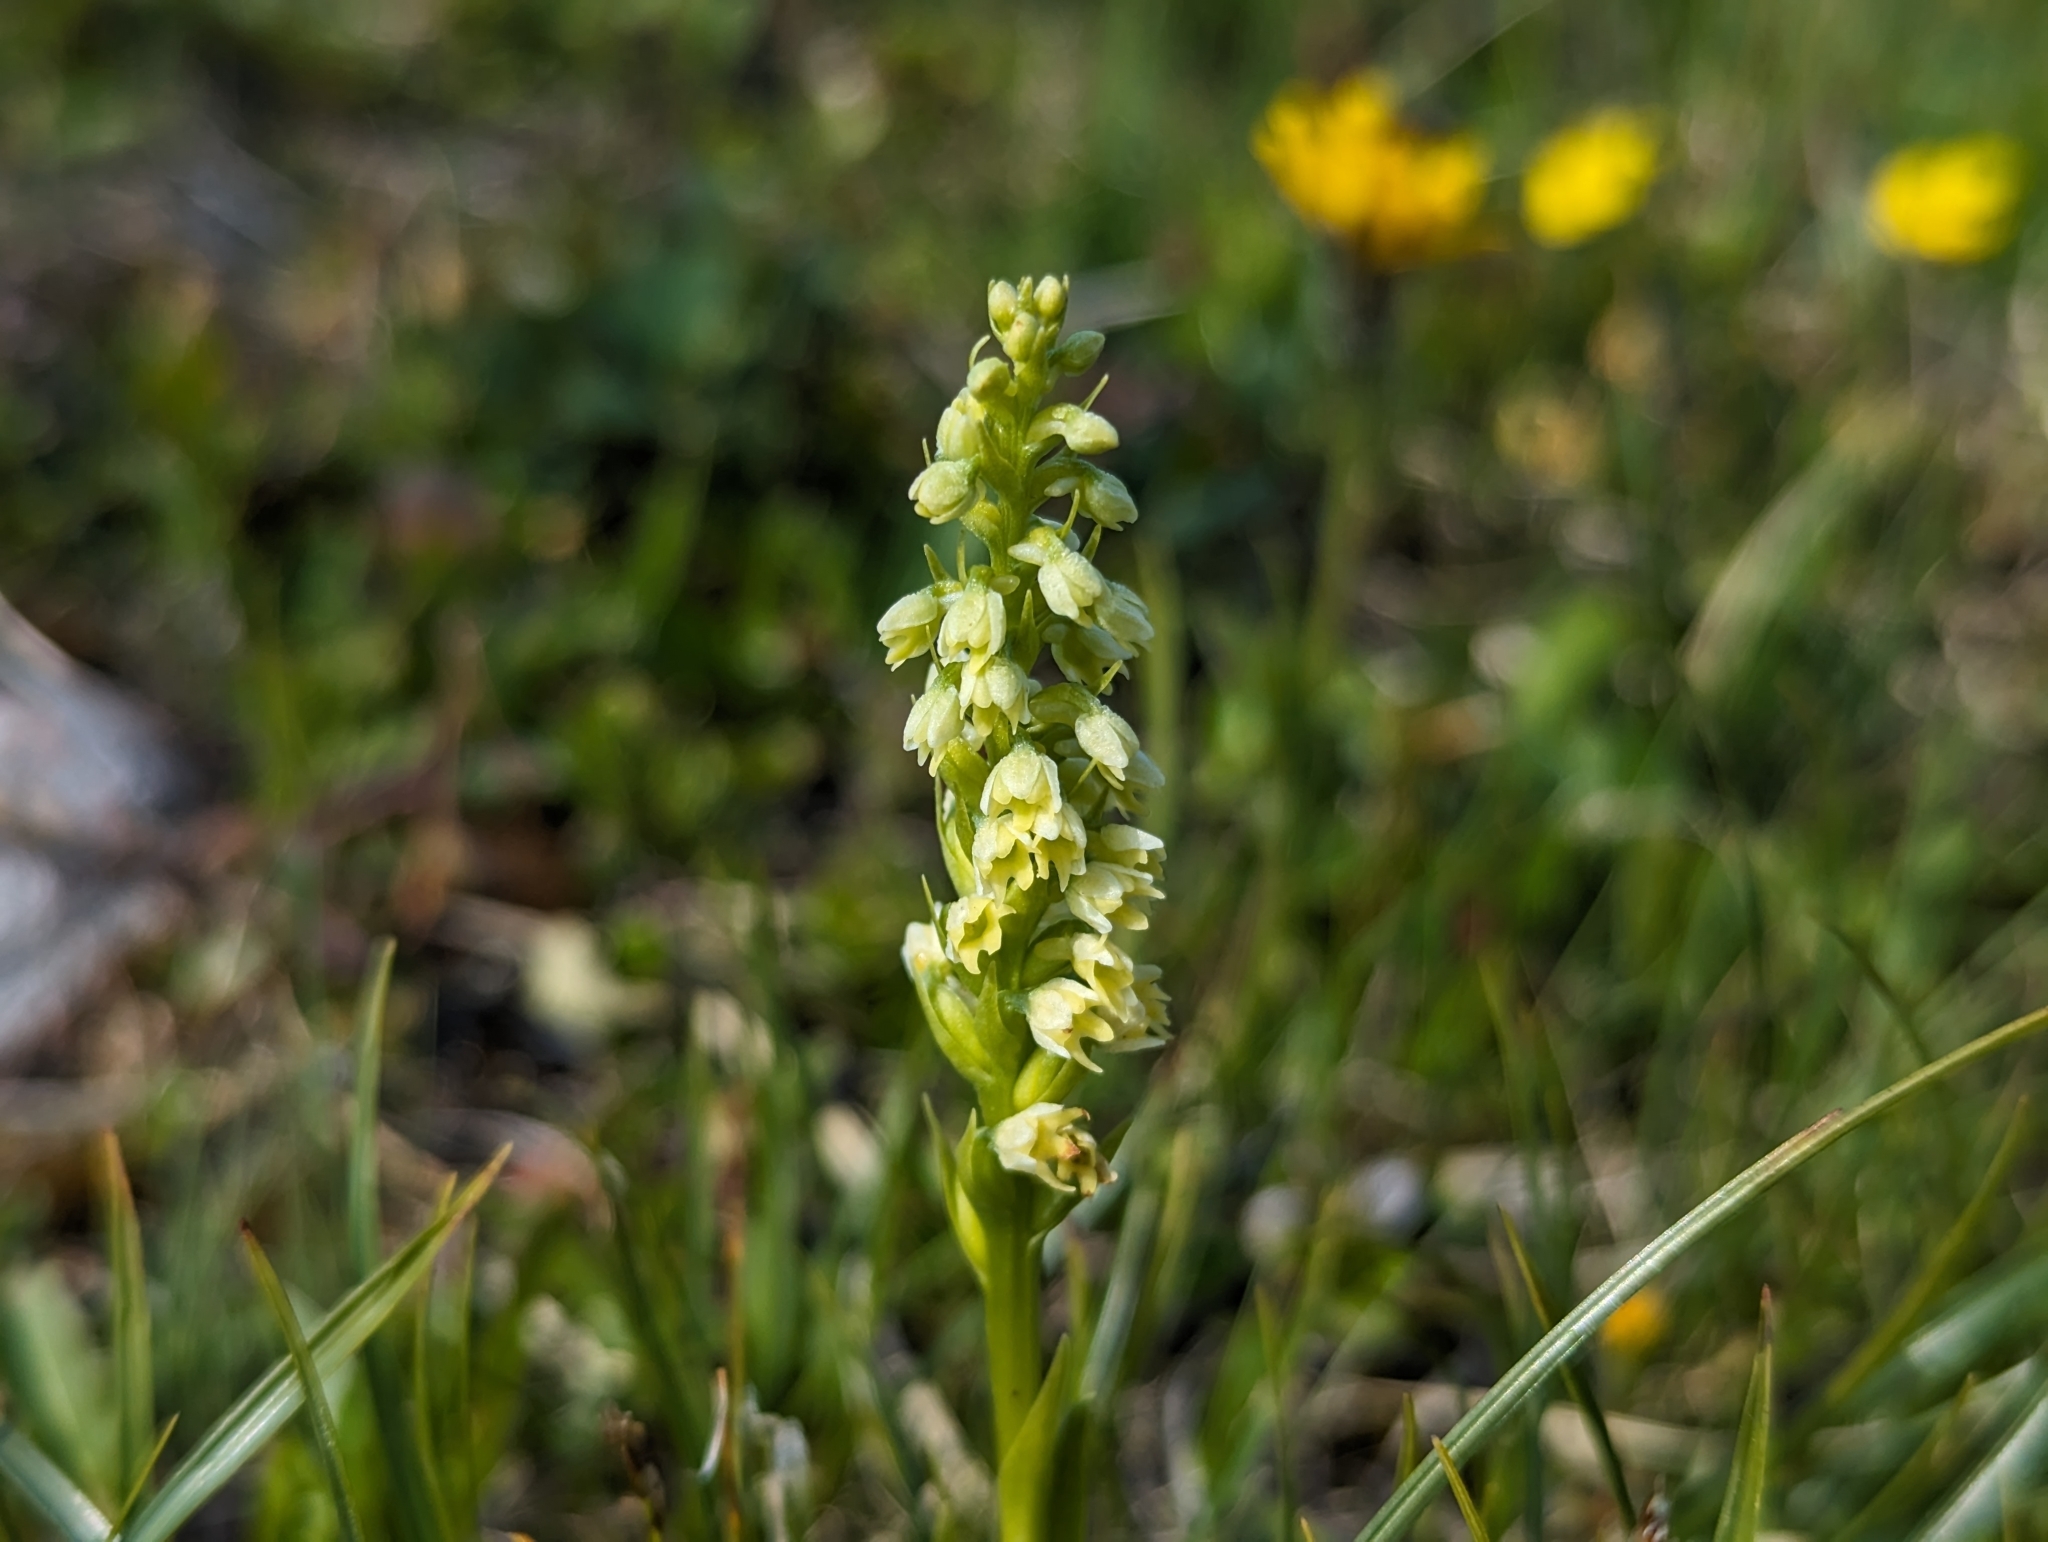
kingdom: Plantae
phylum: Tracheophyta
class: Liliopsida
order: Asparagales
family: Orchidaceae
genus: Pseudorchis
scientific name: Pseudorchis albida
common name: Small-white orchid
